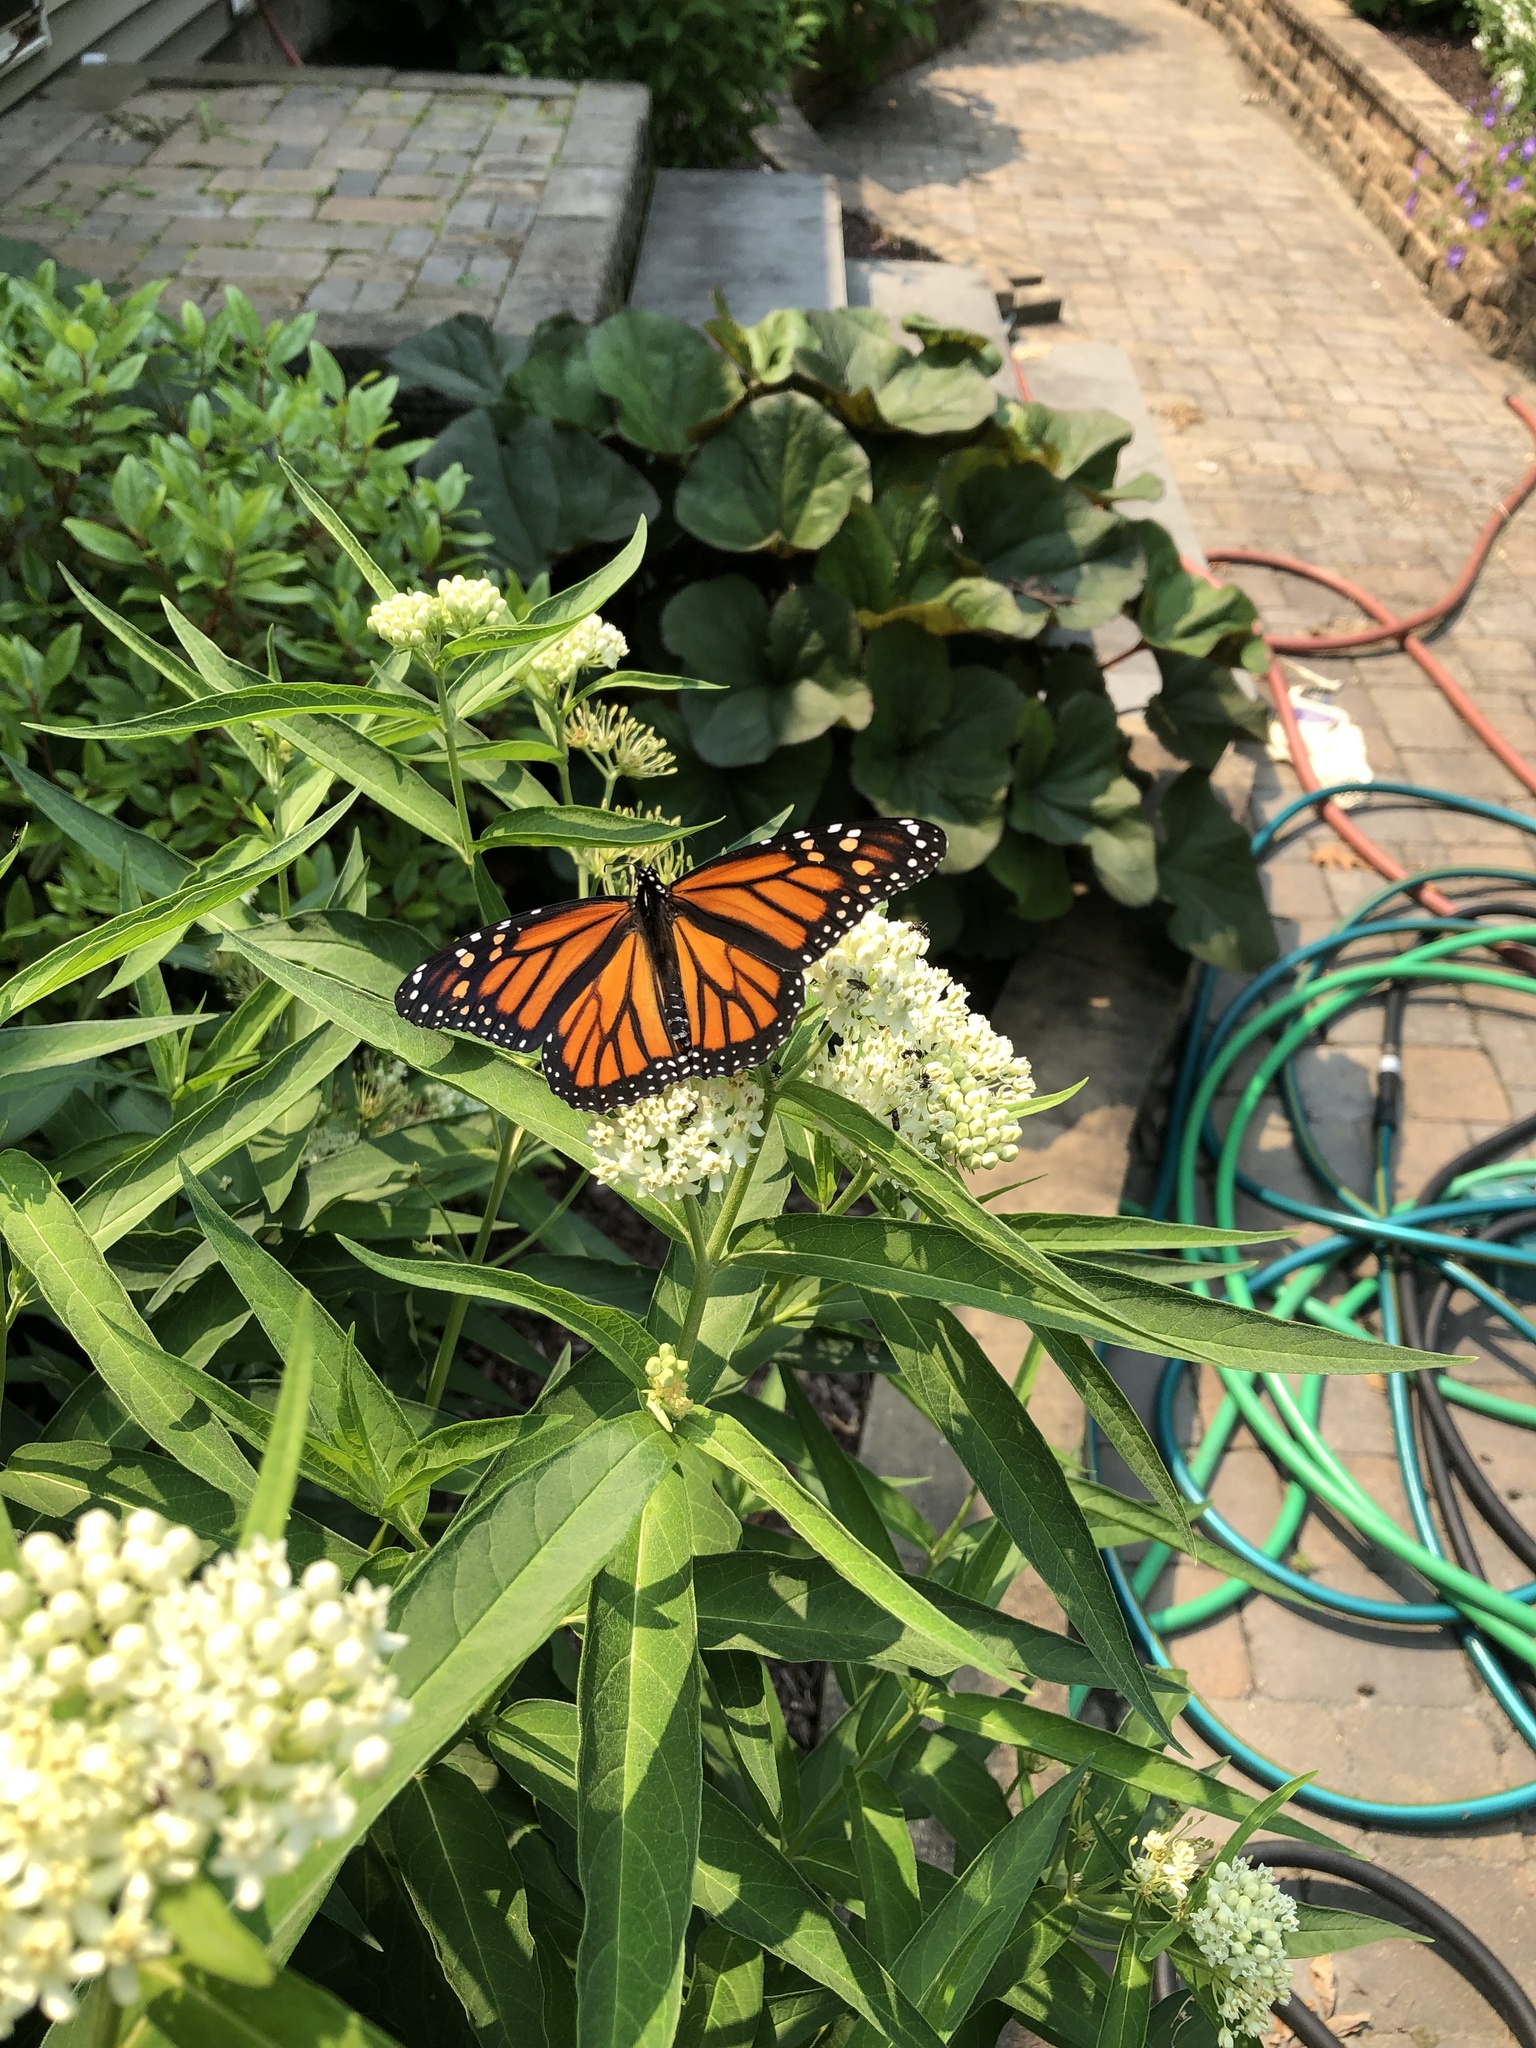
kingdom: Animalia
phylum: Arthropoda
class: Insecta
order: Lepidoptera
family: Nymphalidae
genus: Danaus
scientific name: Danaus plexippus
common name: Monarch
